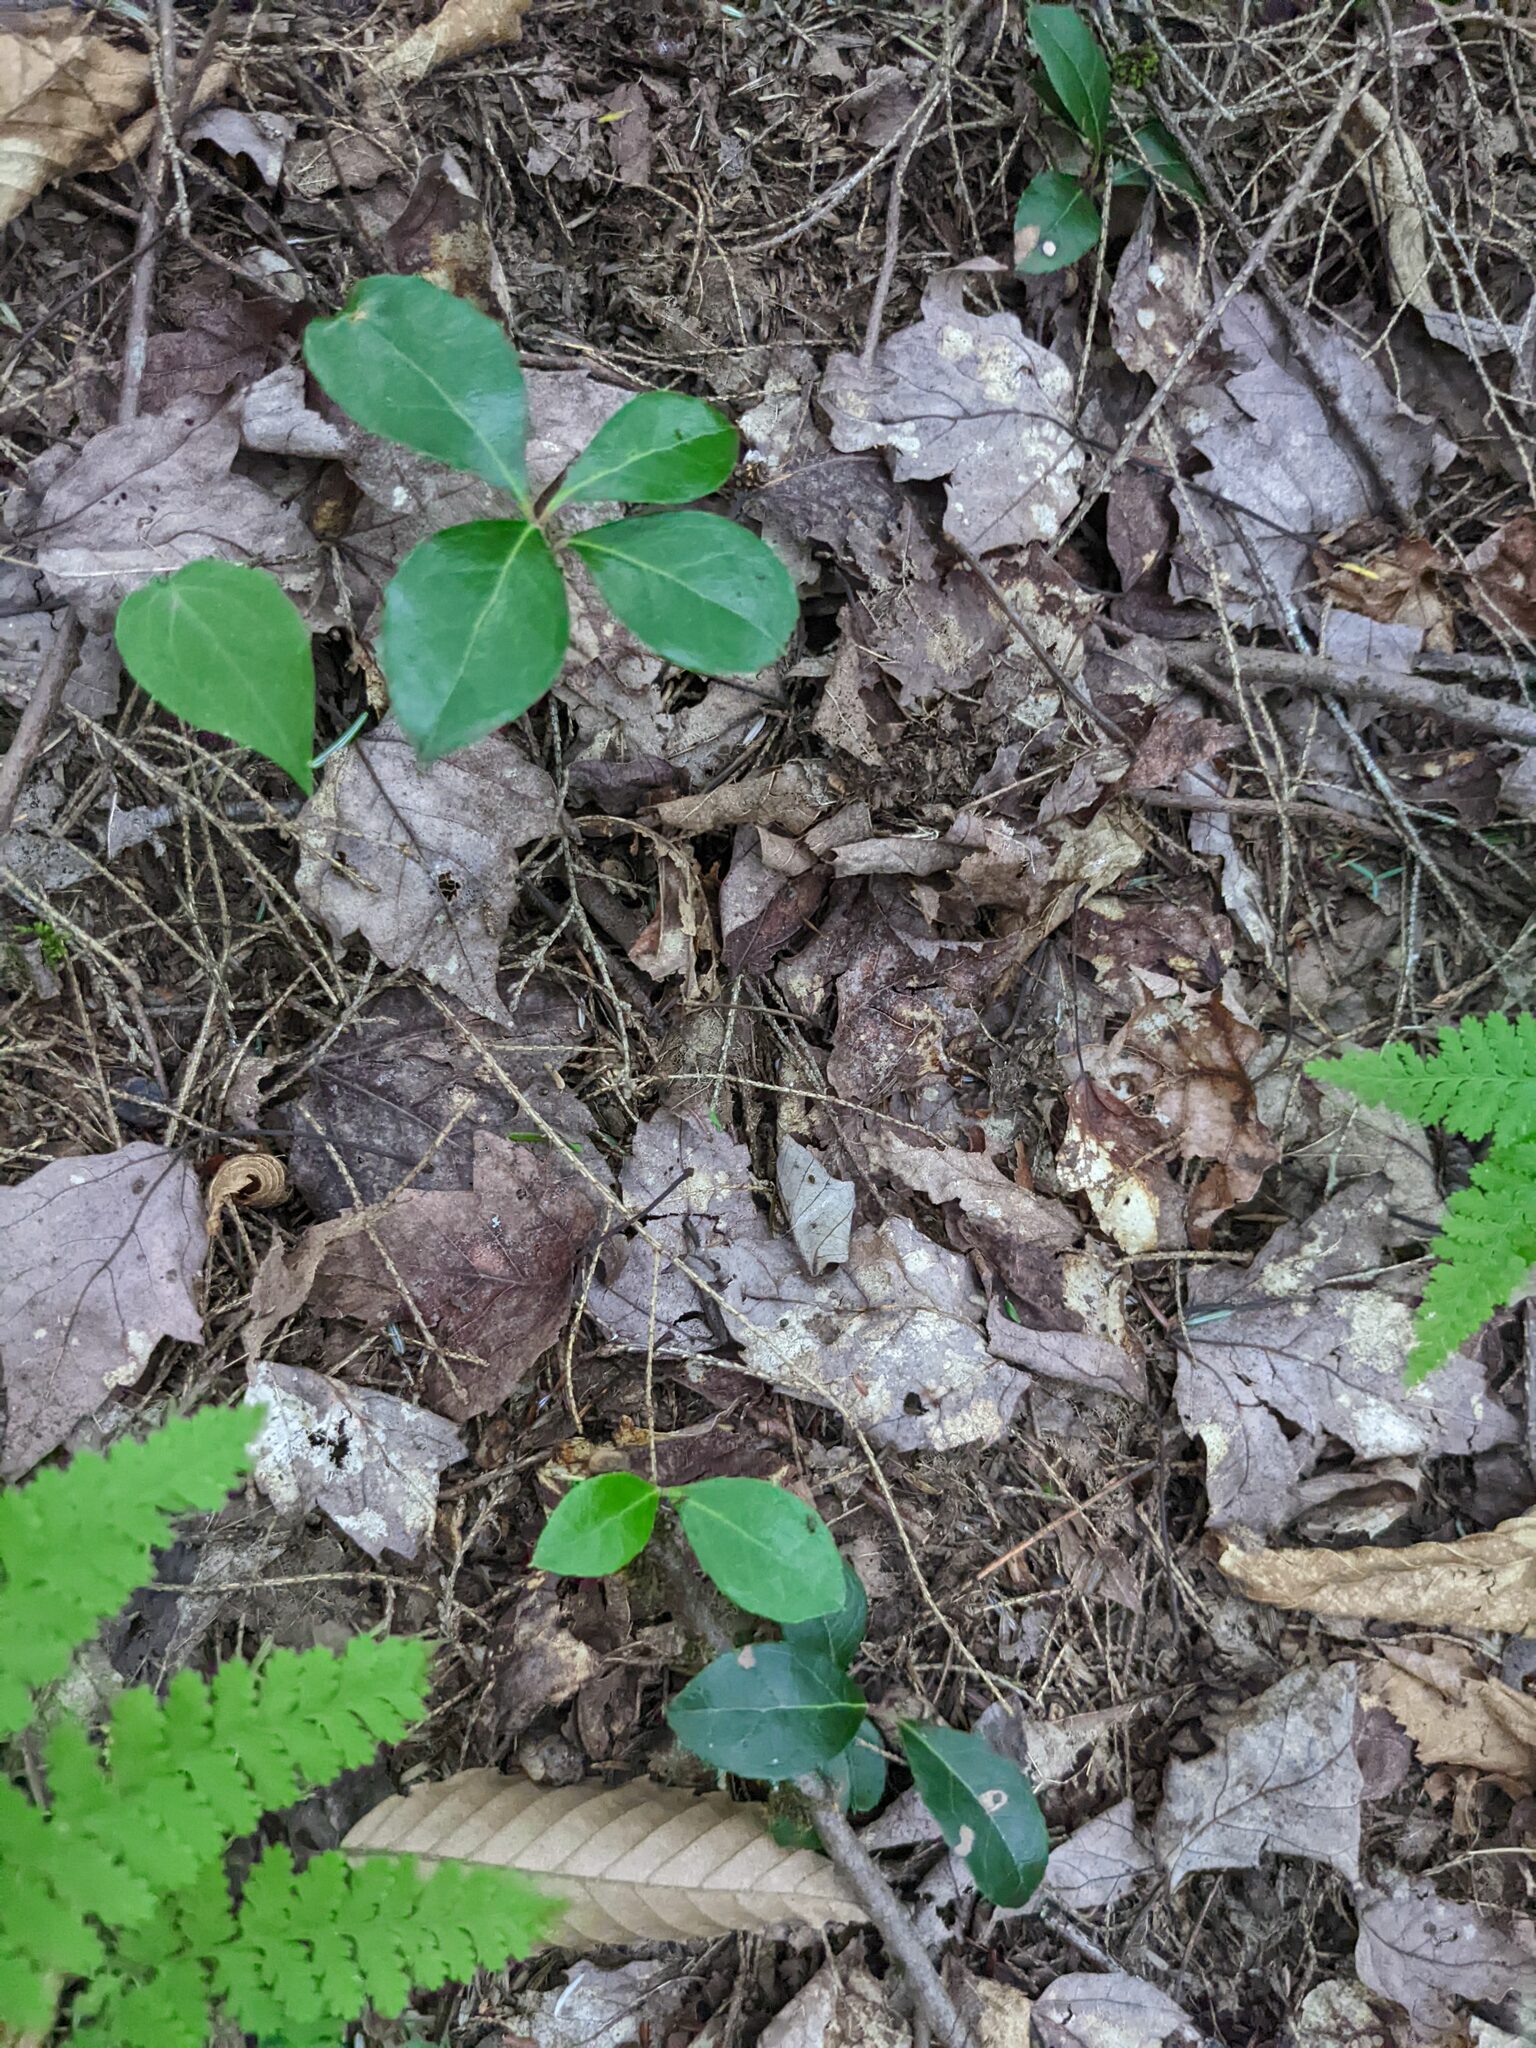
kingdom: Plantae
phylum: Tracheophyta
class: Magnoliopsida
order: Ericales
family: Ericaceae
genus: Gaultheria
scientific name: Gaultheria procumbens
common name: Checkerberry
